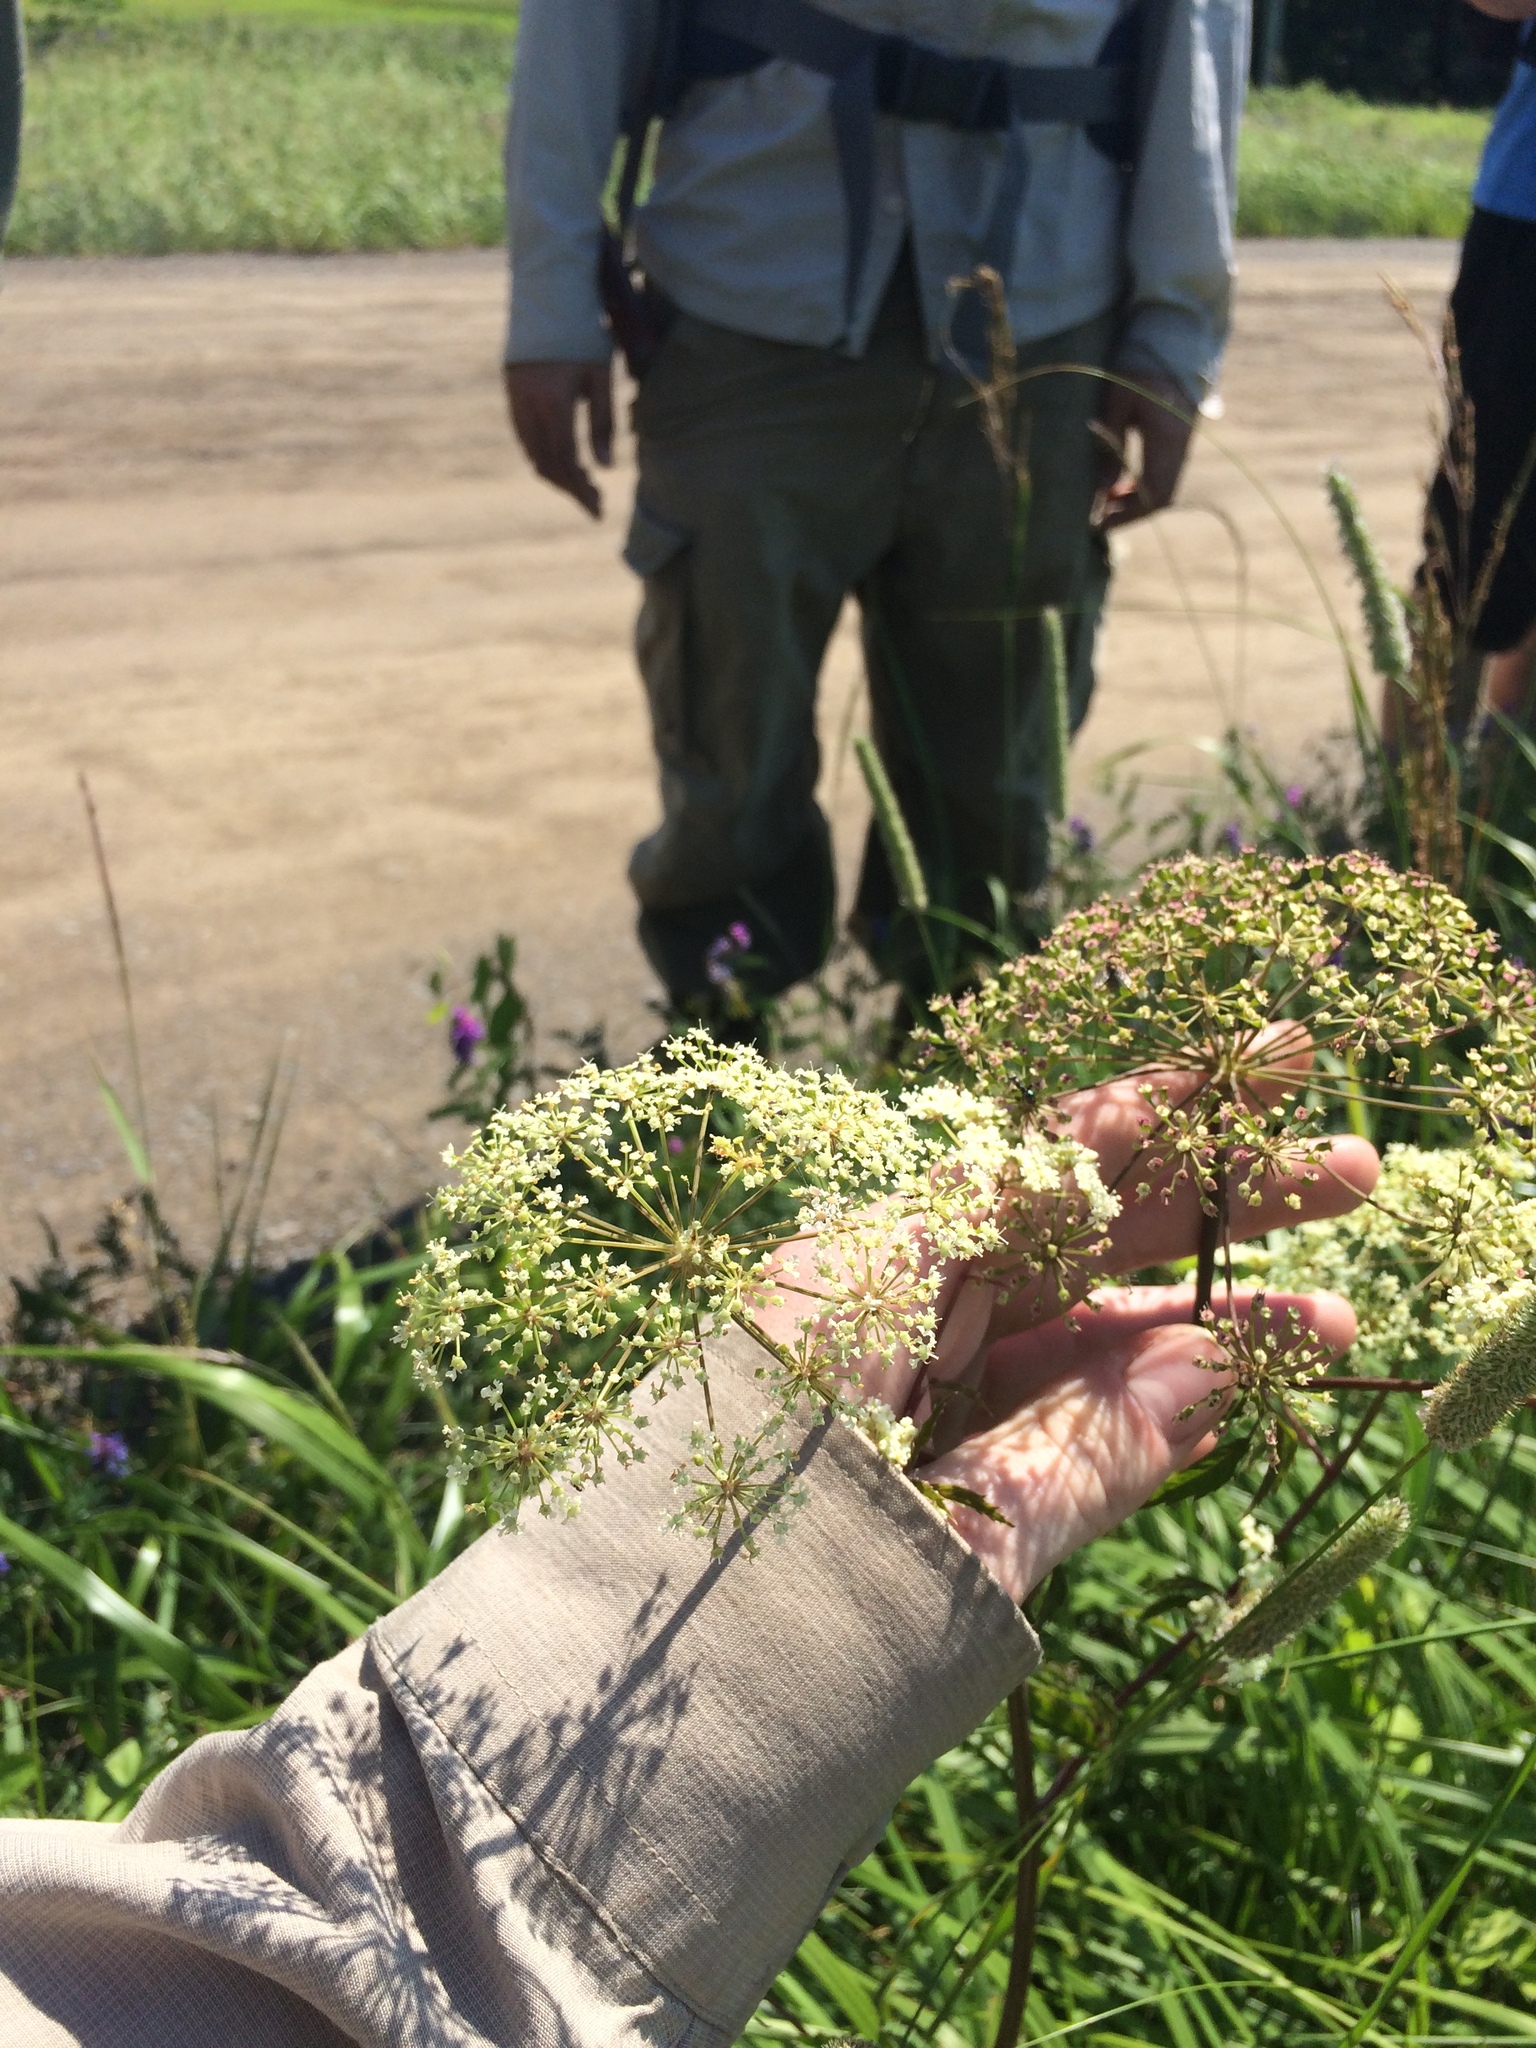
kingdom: Plantae
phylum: Tracheophyta
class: Magnoliopsida
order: Apiales
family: Apiaceae
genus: Cicuta
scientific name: Cicuta maculata
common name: Spotted cowbane
